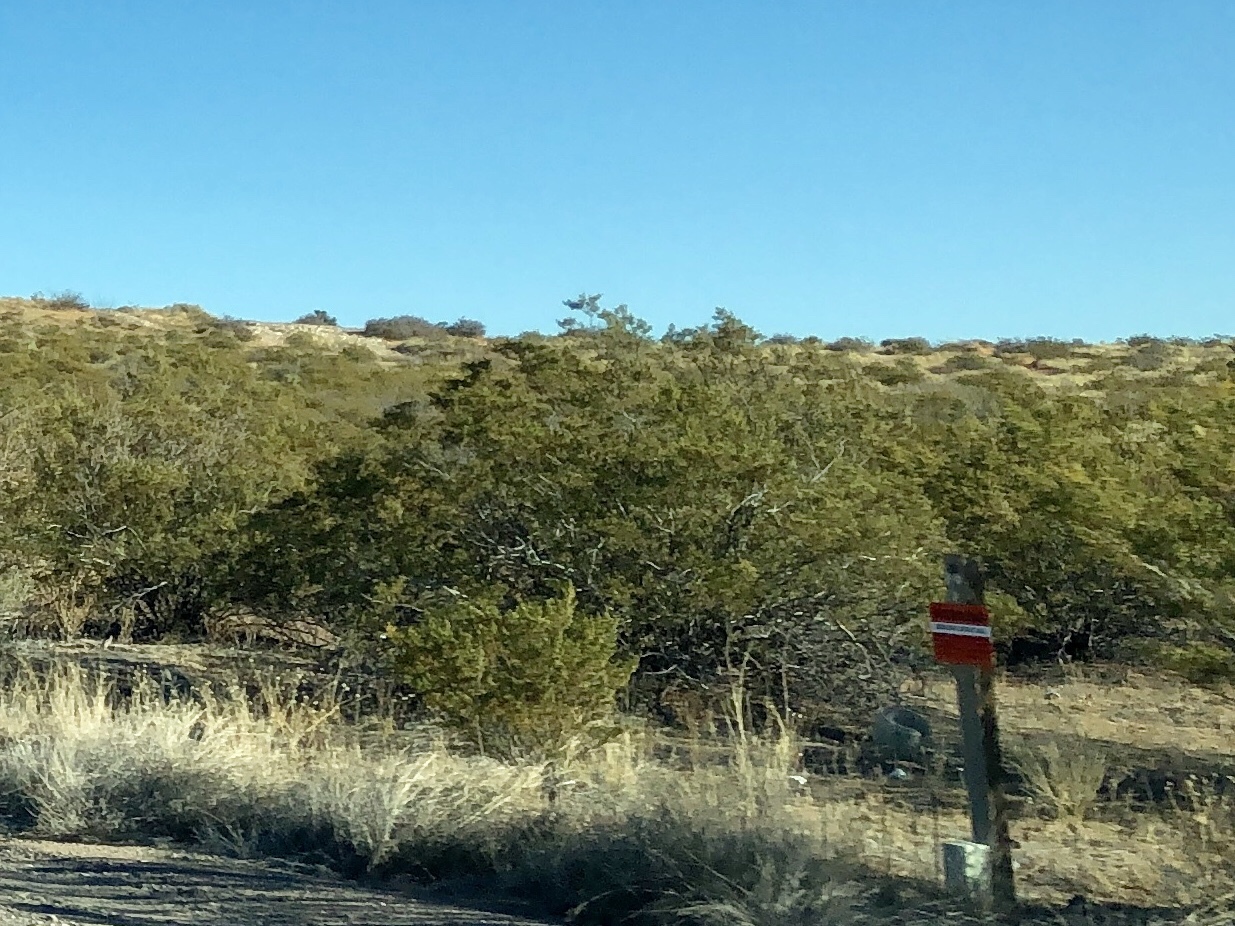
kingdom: Plantae
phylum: Tracheophyta
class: Magnoliopsida
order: Zygophyllales
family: Zygophyllaceae
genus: Larrea
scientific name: Larrea tridentata
